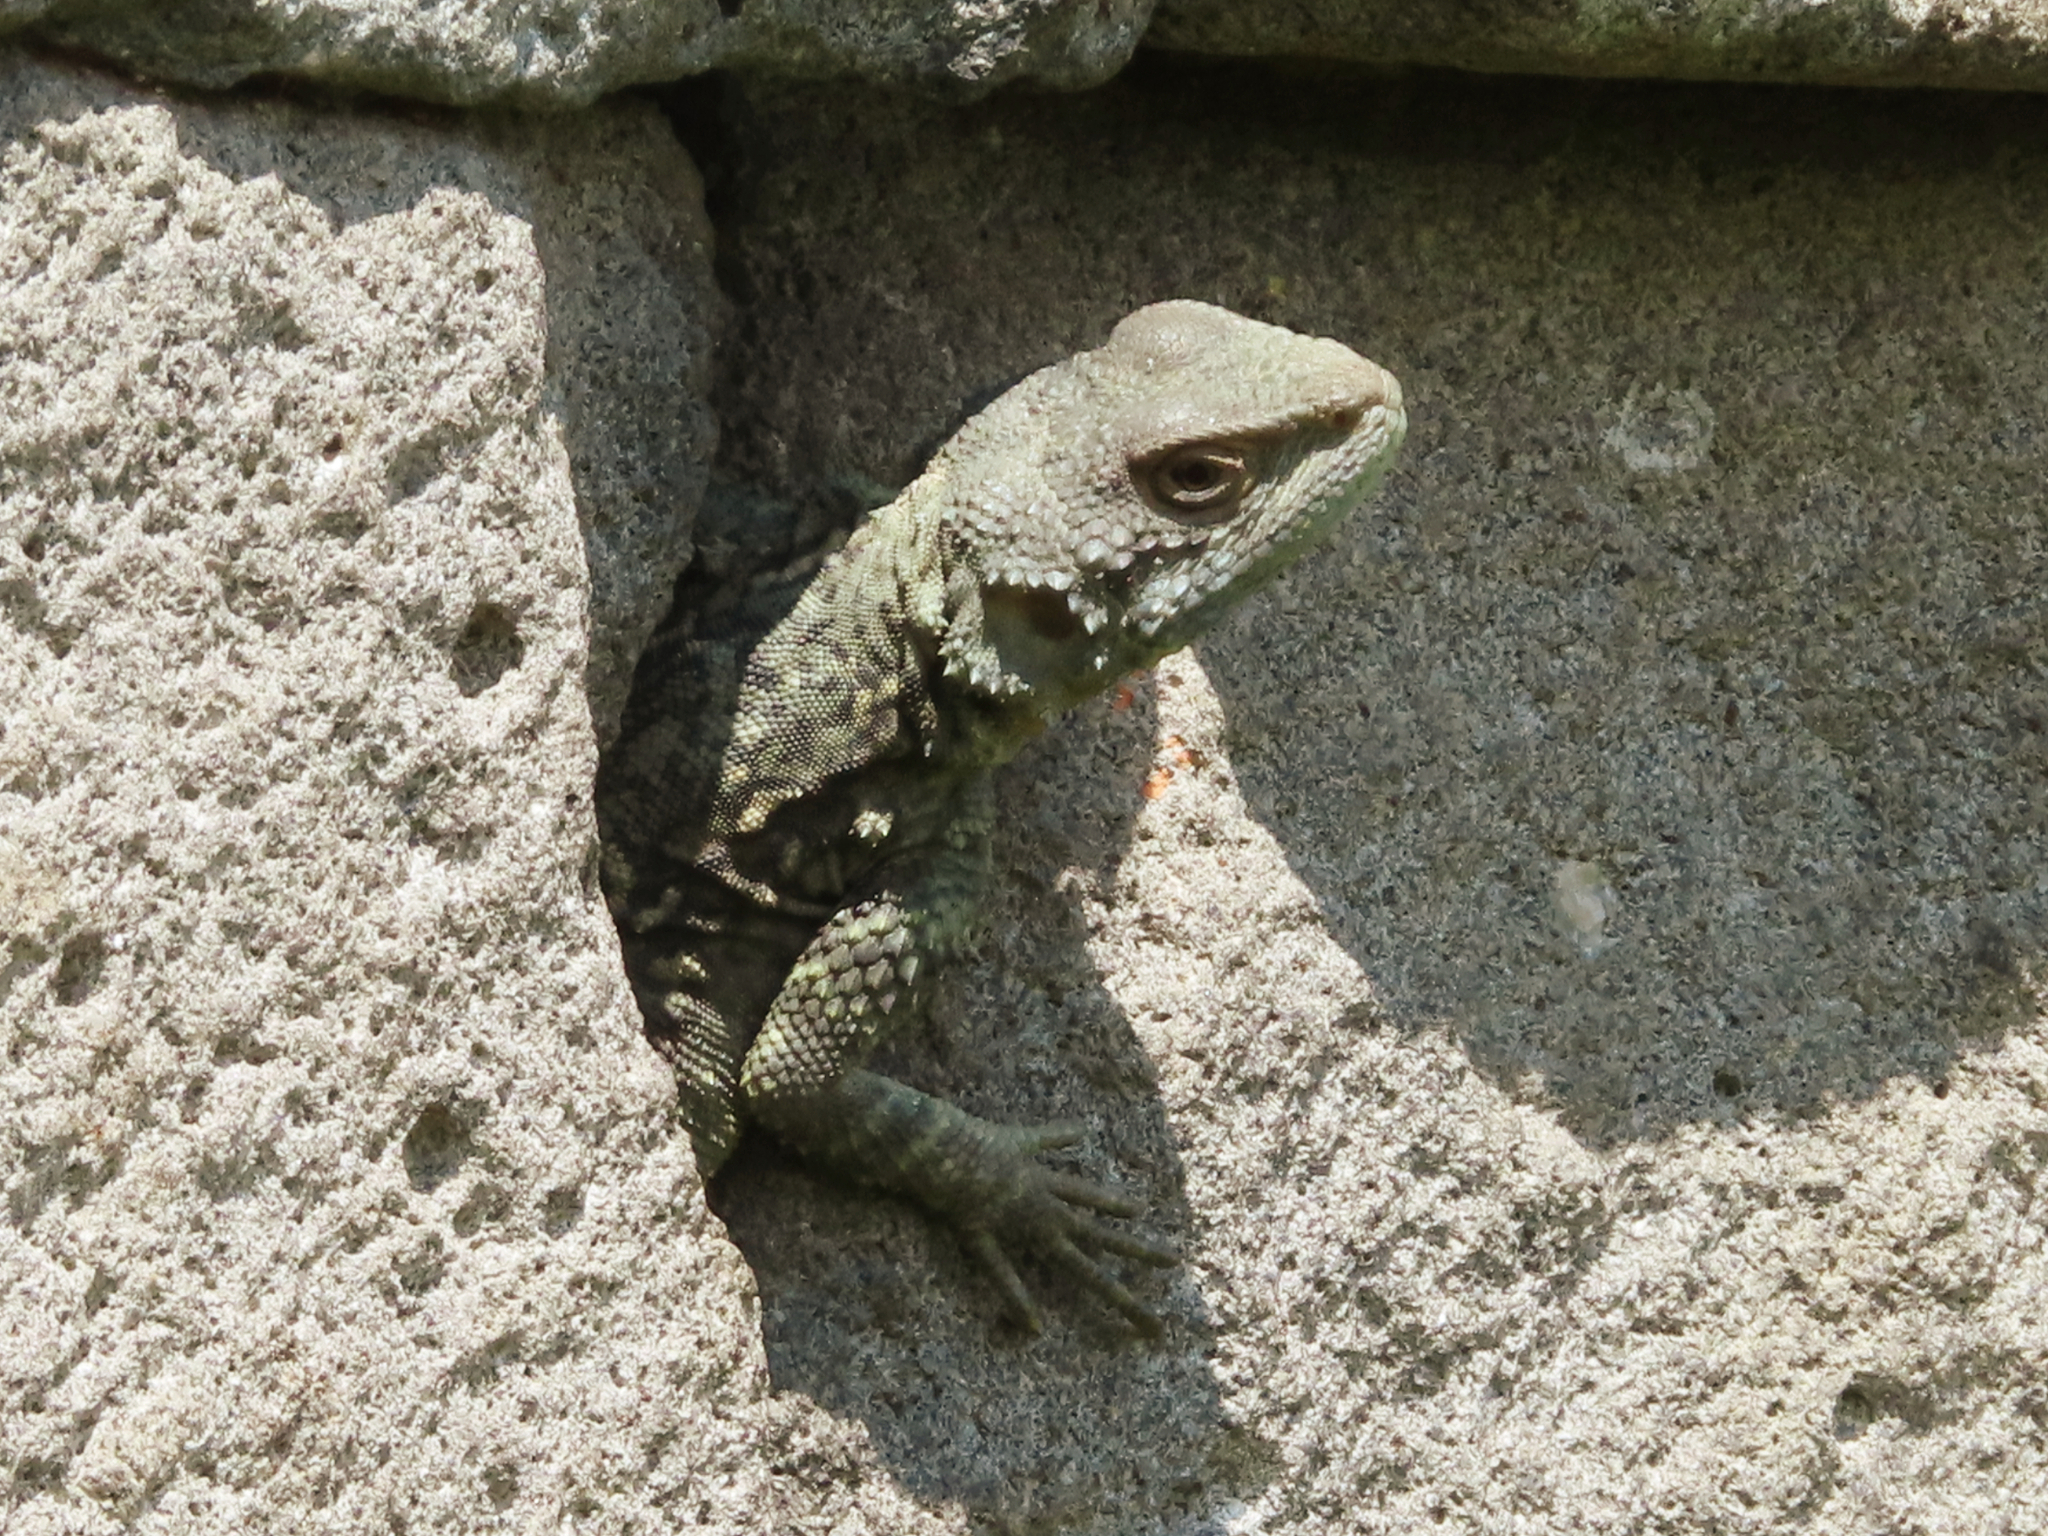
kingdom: Animalia
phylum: Chordata
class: Squamata
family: Agamidae
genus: Paralaudakia
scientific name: Paralaudakia caucasia
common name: Caucasian agama
